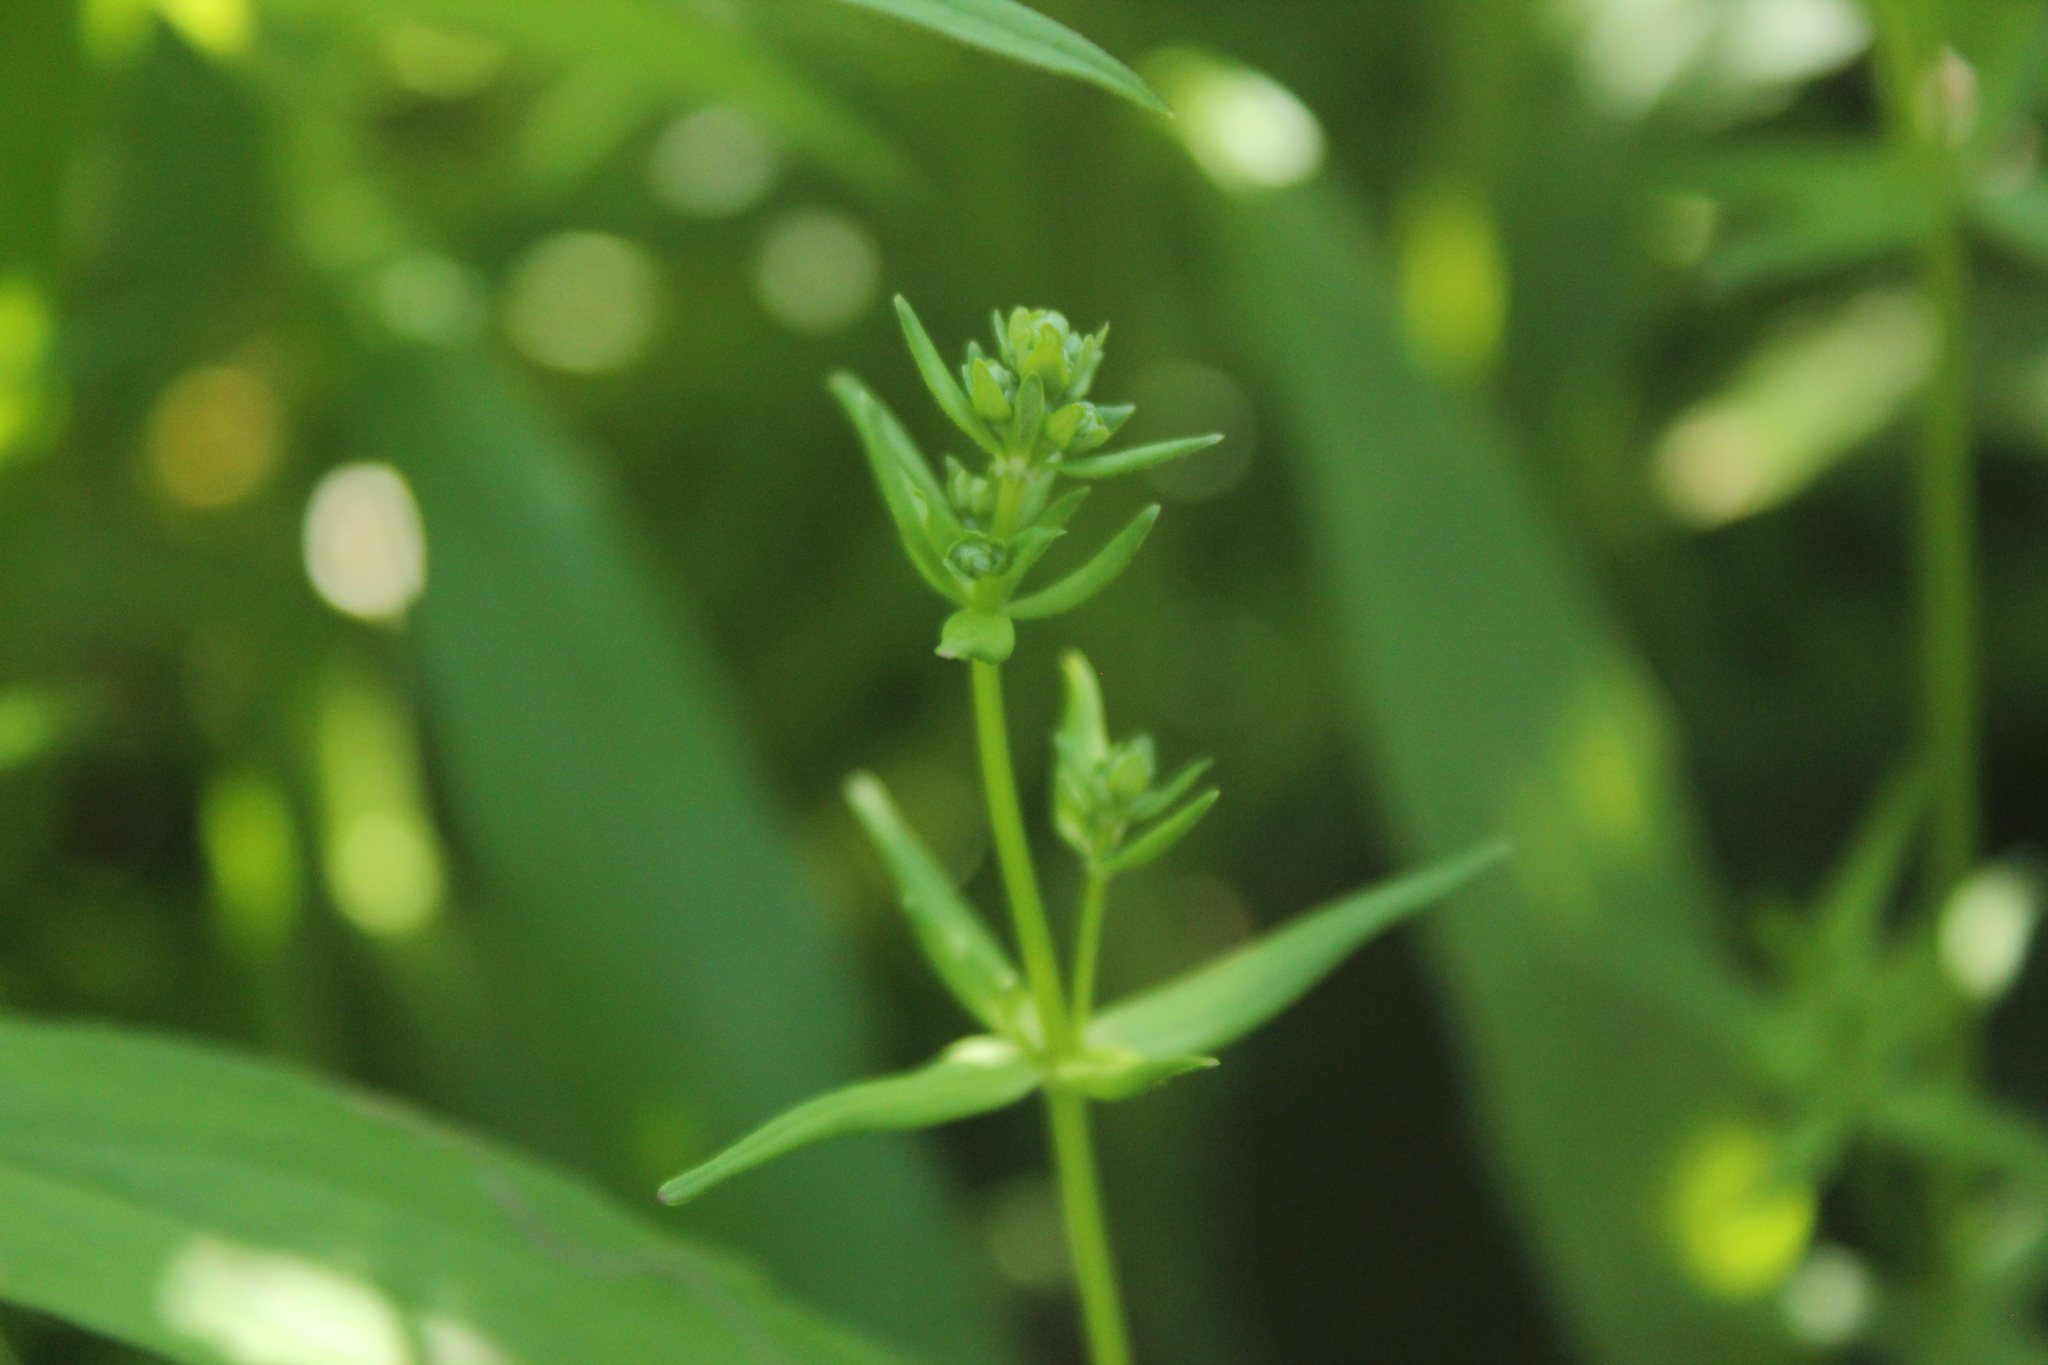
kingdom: Plantae
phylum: Tracheophyta
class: Magnoliopsida
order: Gentianales
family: Rubiaceae
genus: Galium
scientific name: Galium boreale
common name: Northern bedstraw
